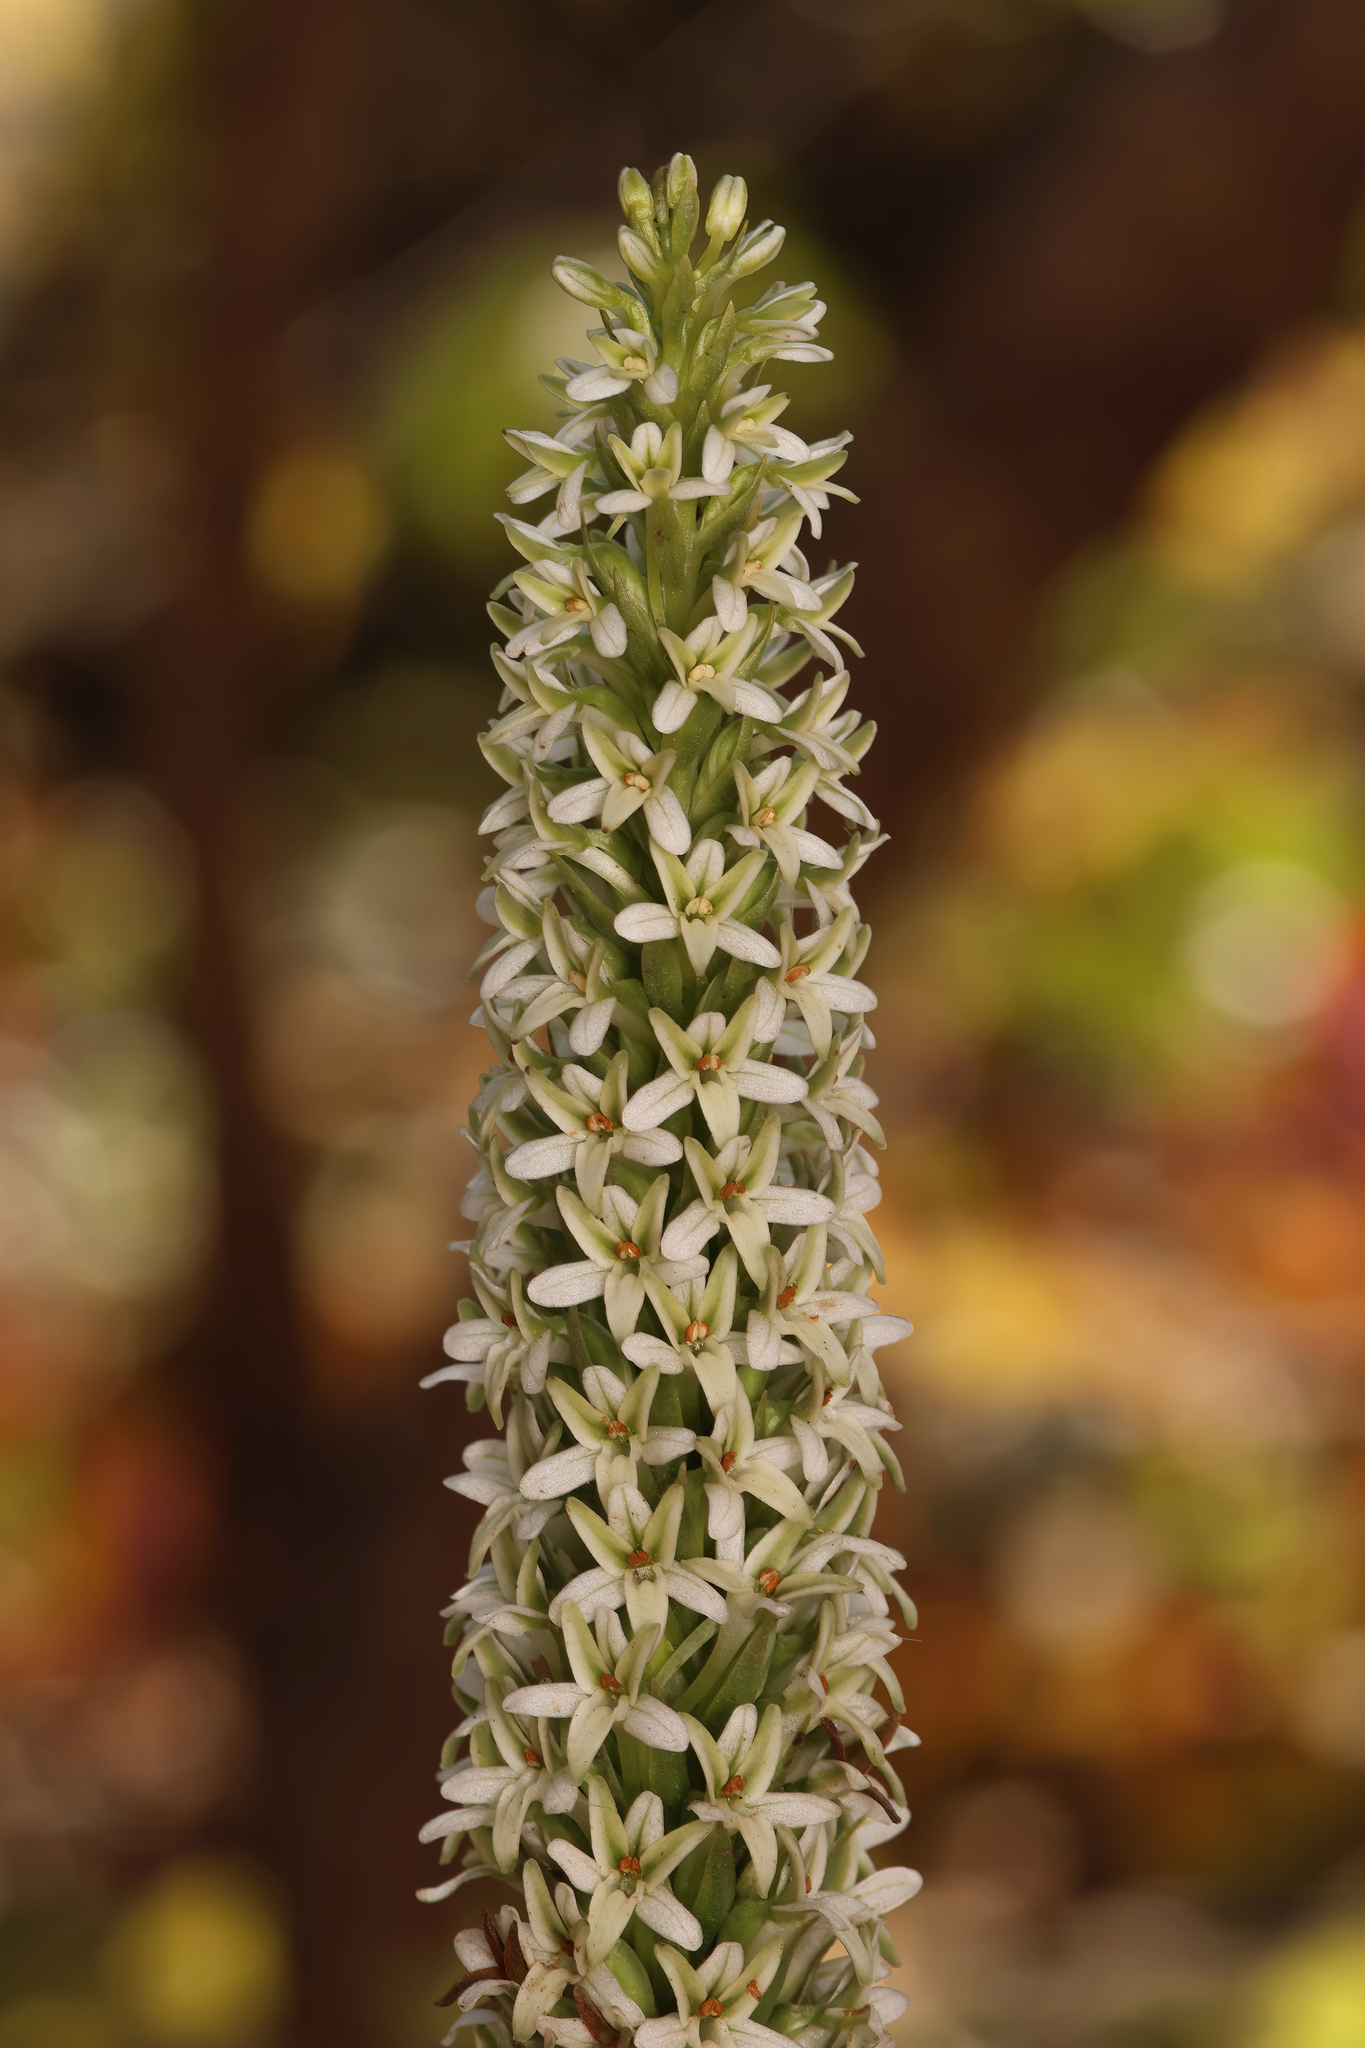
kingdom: Plantae
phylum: Tracheophyta
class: Liliopsida
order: Asparagales
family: Orchidaceae
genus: Platanthera
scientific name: Platanthera elegans
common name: Coast piperia
